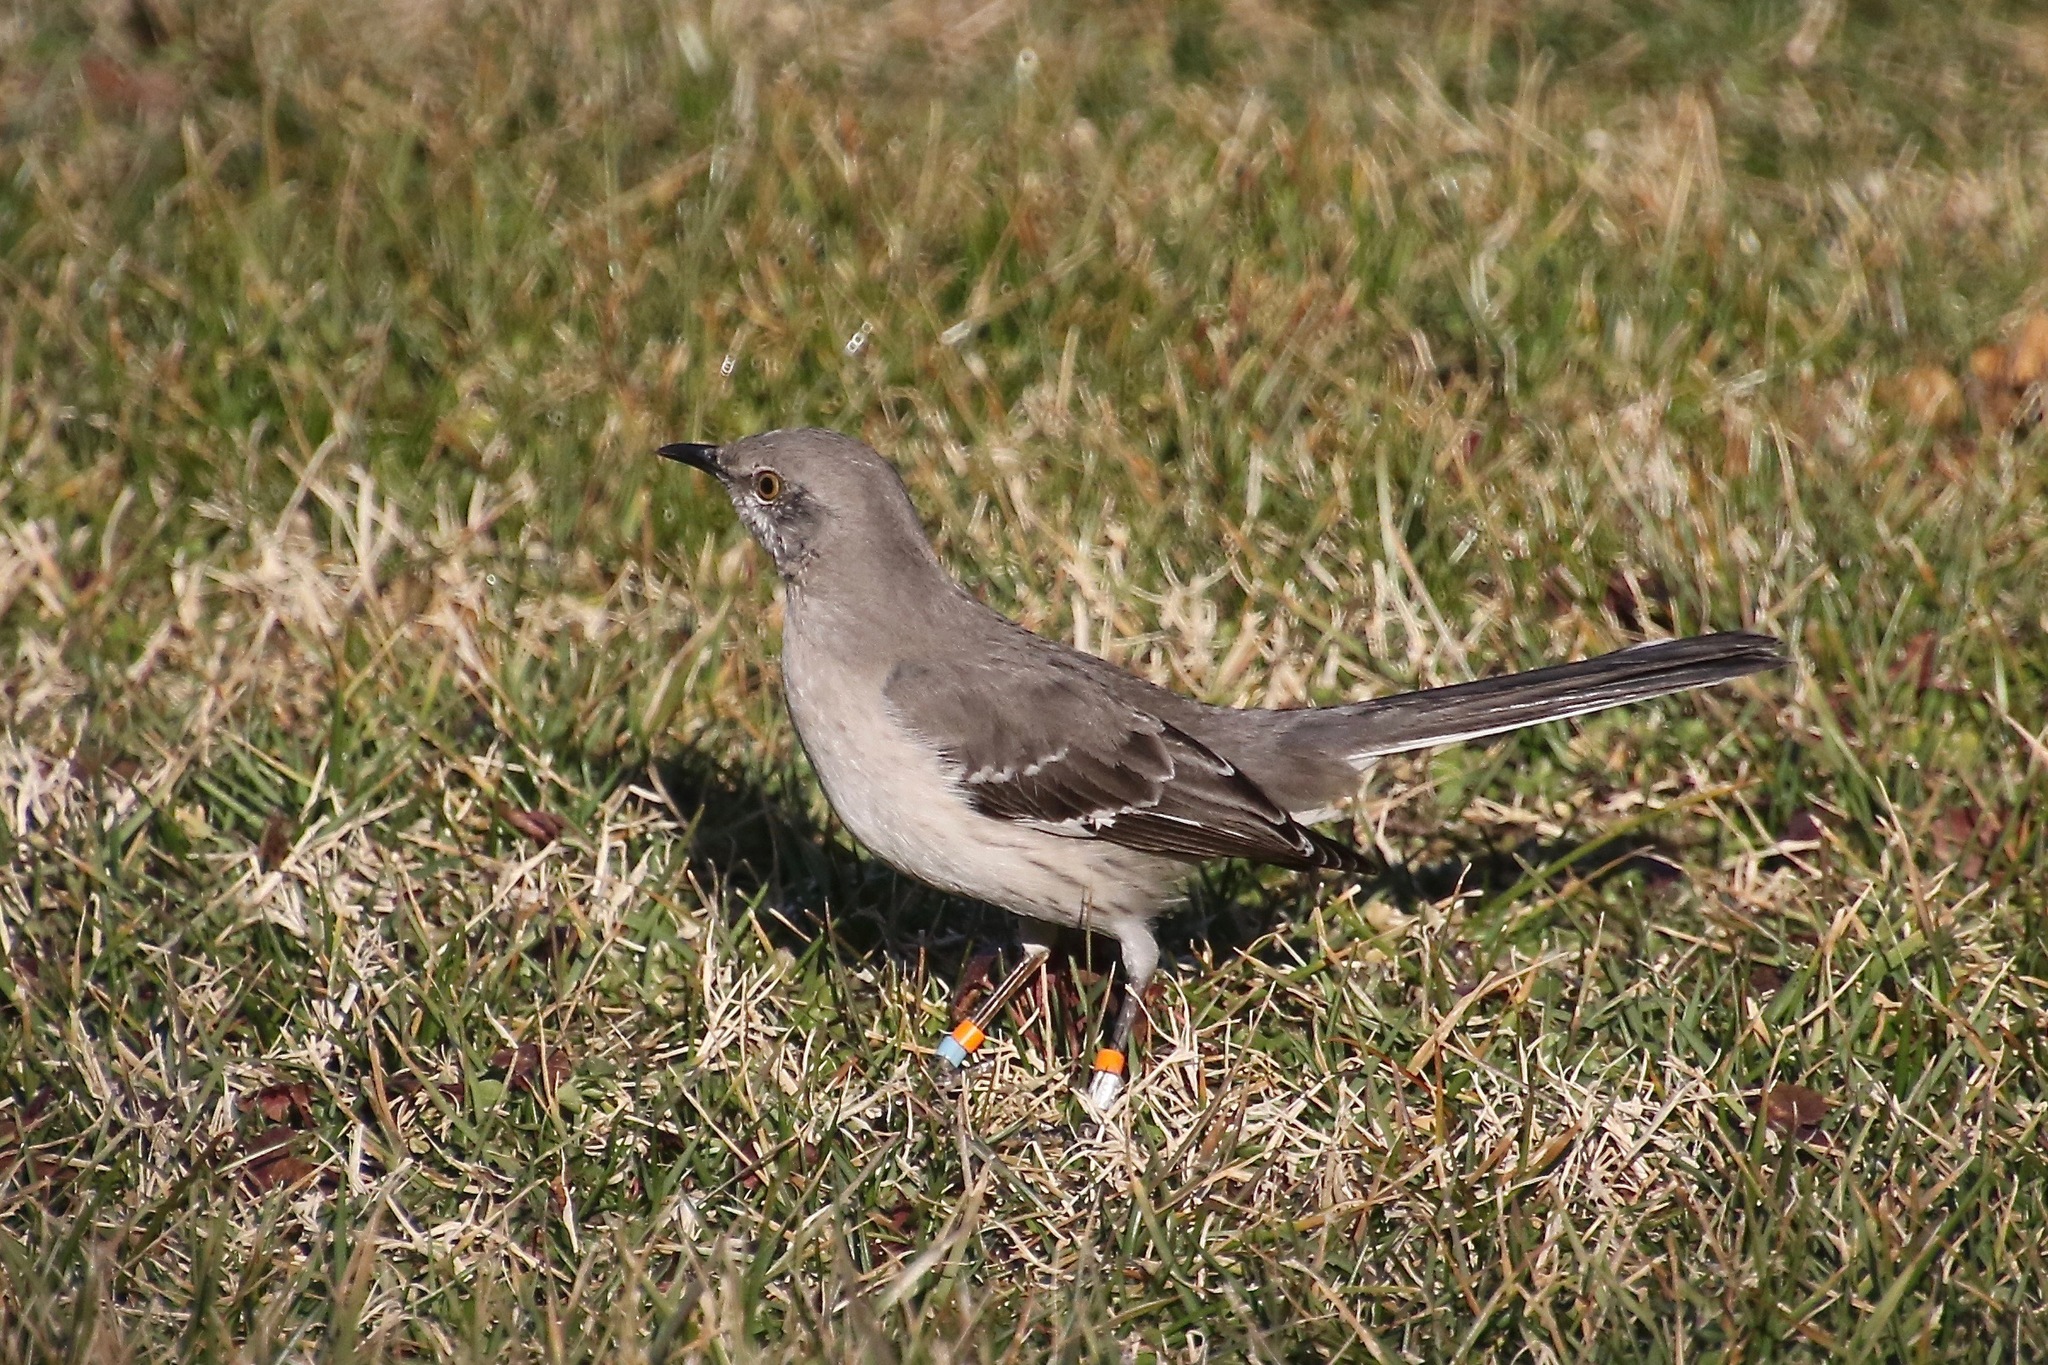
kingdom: Animalia
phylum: Chordata
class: Aves
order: Passeriformes
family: Mimidae
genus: Mimus
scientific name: Mimus polyglottos
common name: Northern mockingbird
